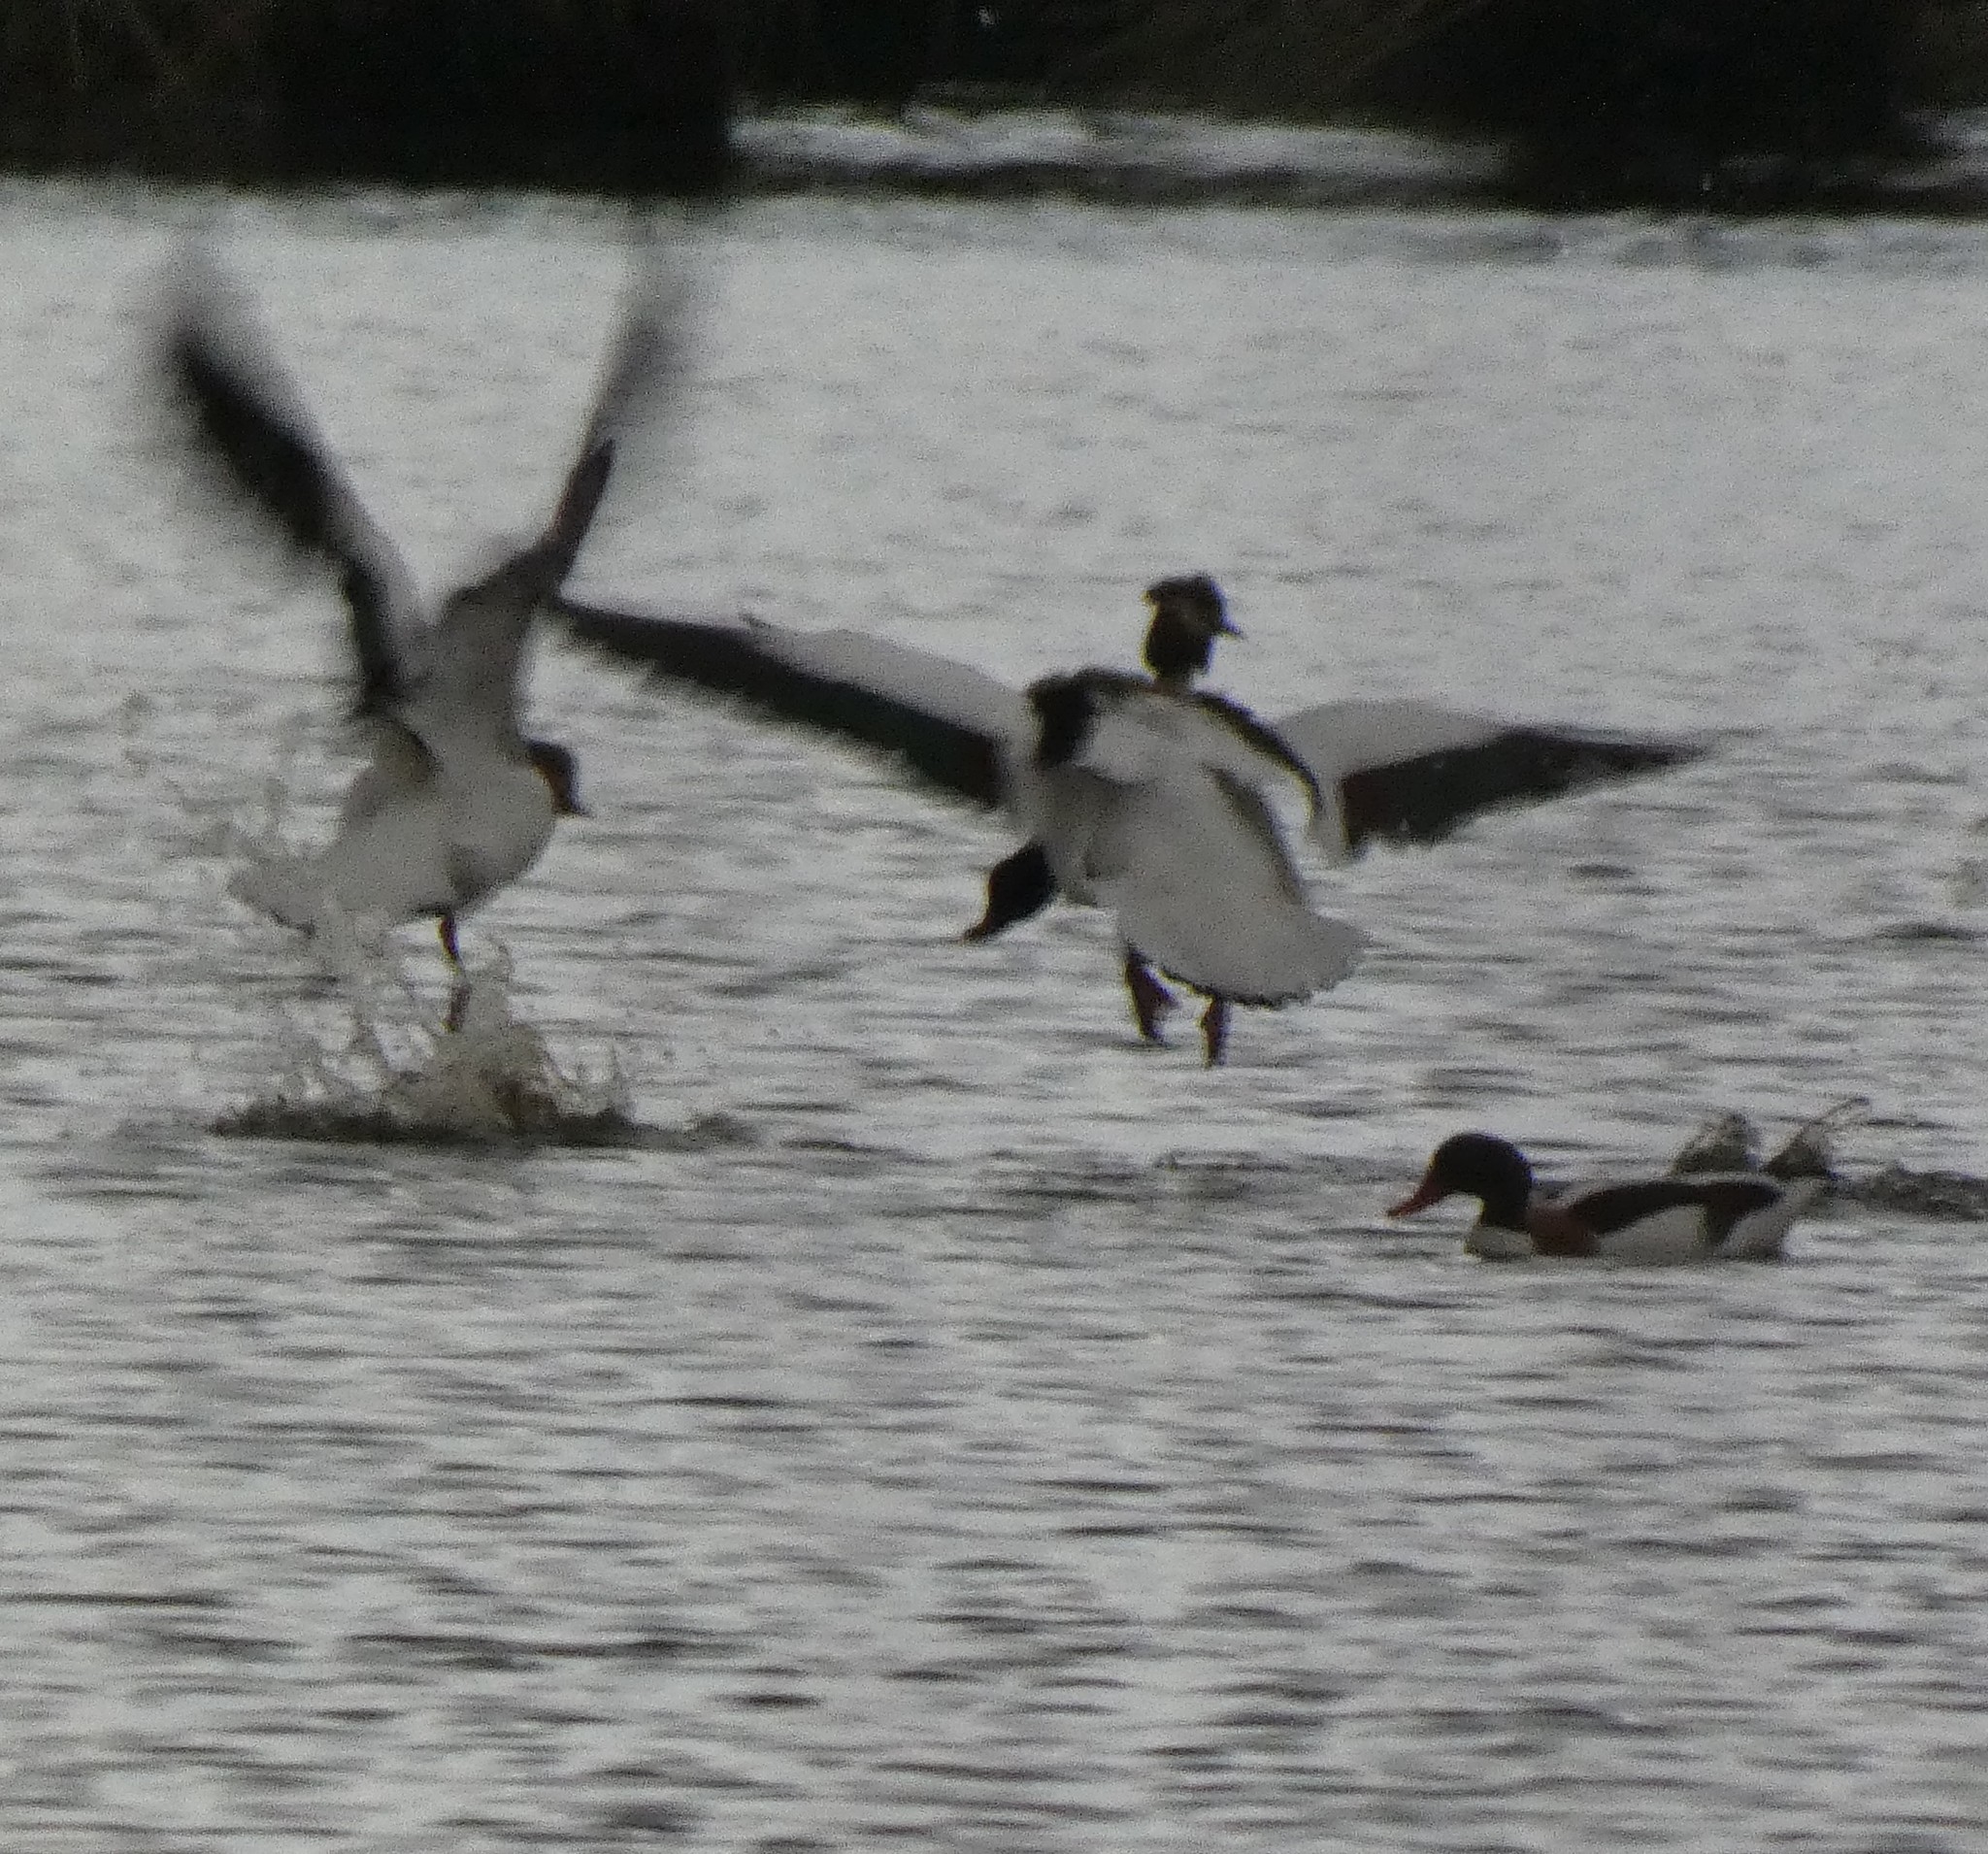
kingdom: Animalia
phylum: Chordata
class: Aves
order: Anseriformes
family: Anatidae
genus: Tadorna
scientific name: Tadorna tadorna
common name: Common shelduck
